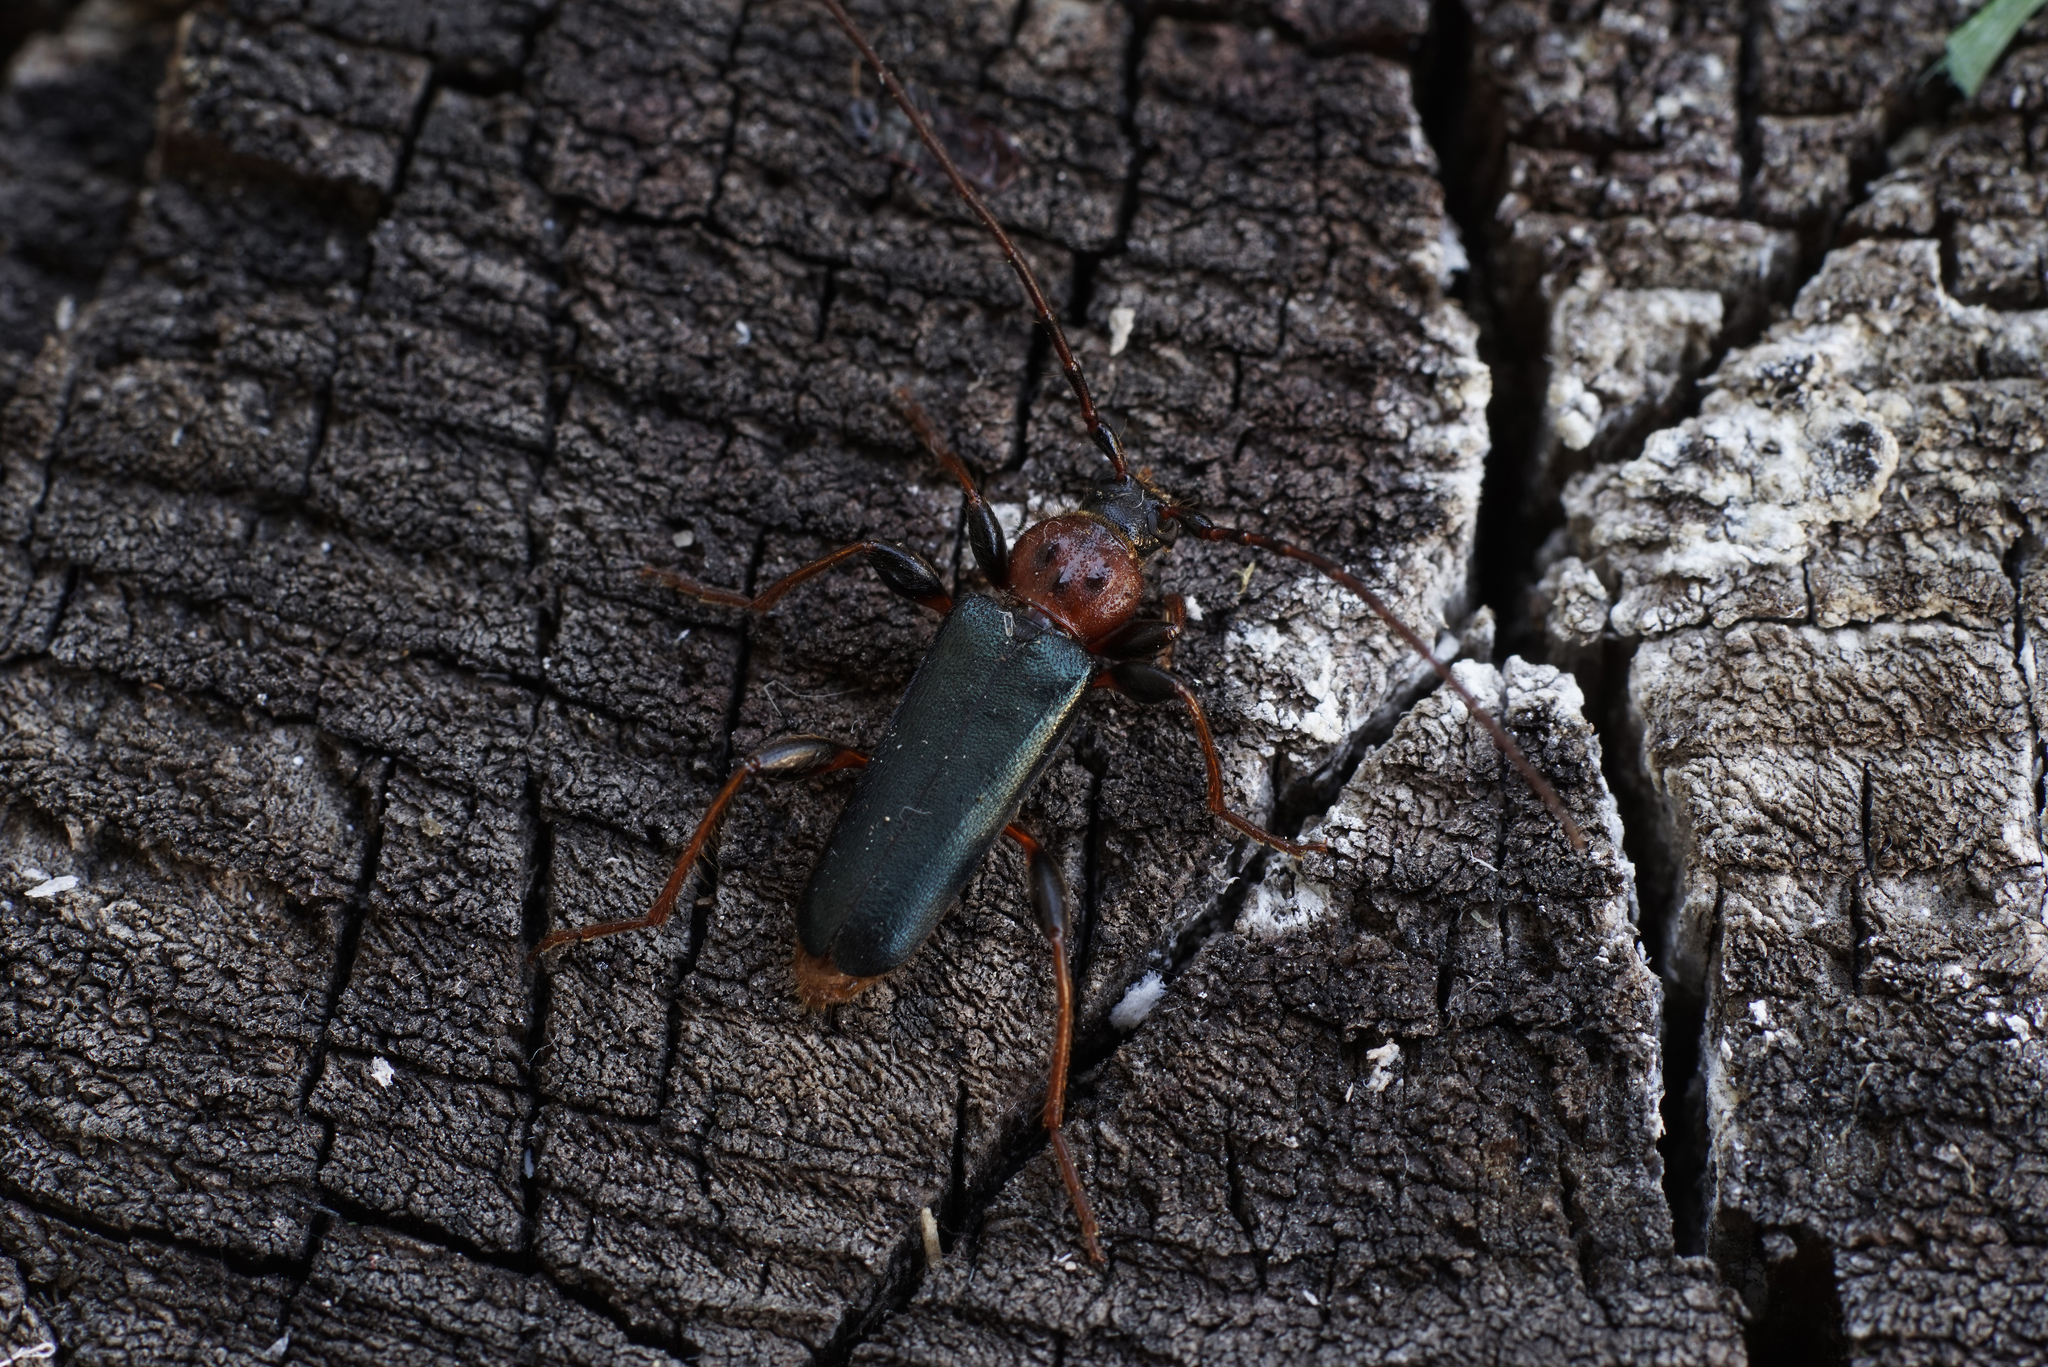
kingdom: Animalia
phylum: Arthropoda
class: Insecta
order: Coleoptera
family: Cerambycidae
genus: Phymatodes
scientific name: Phymatodes testaceus
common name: Long-horned beetle
